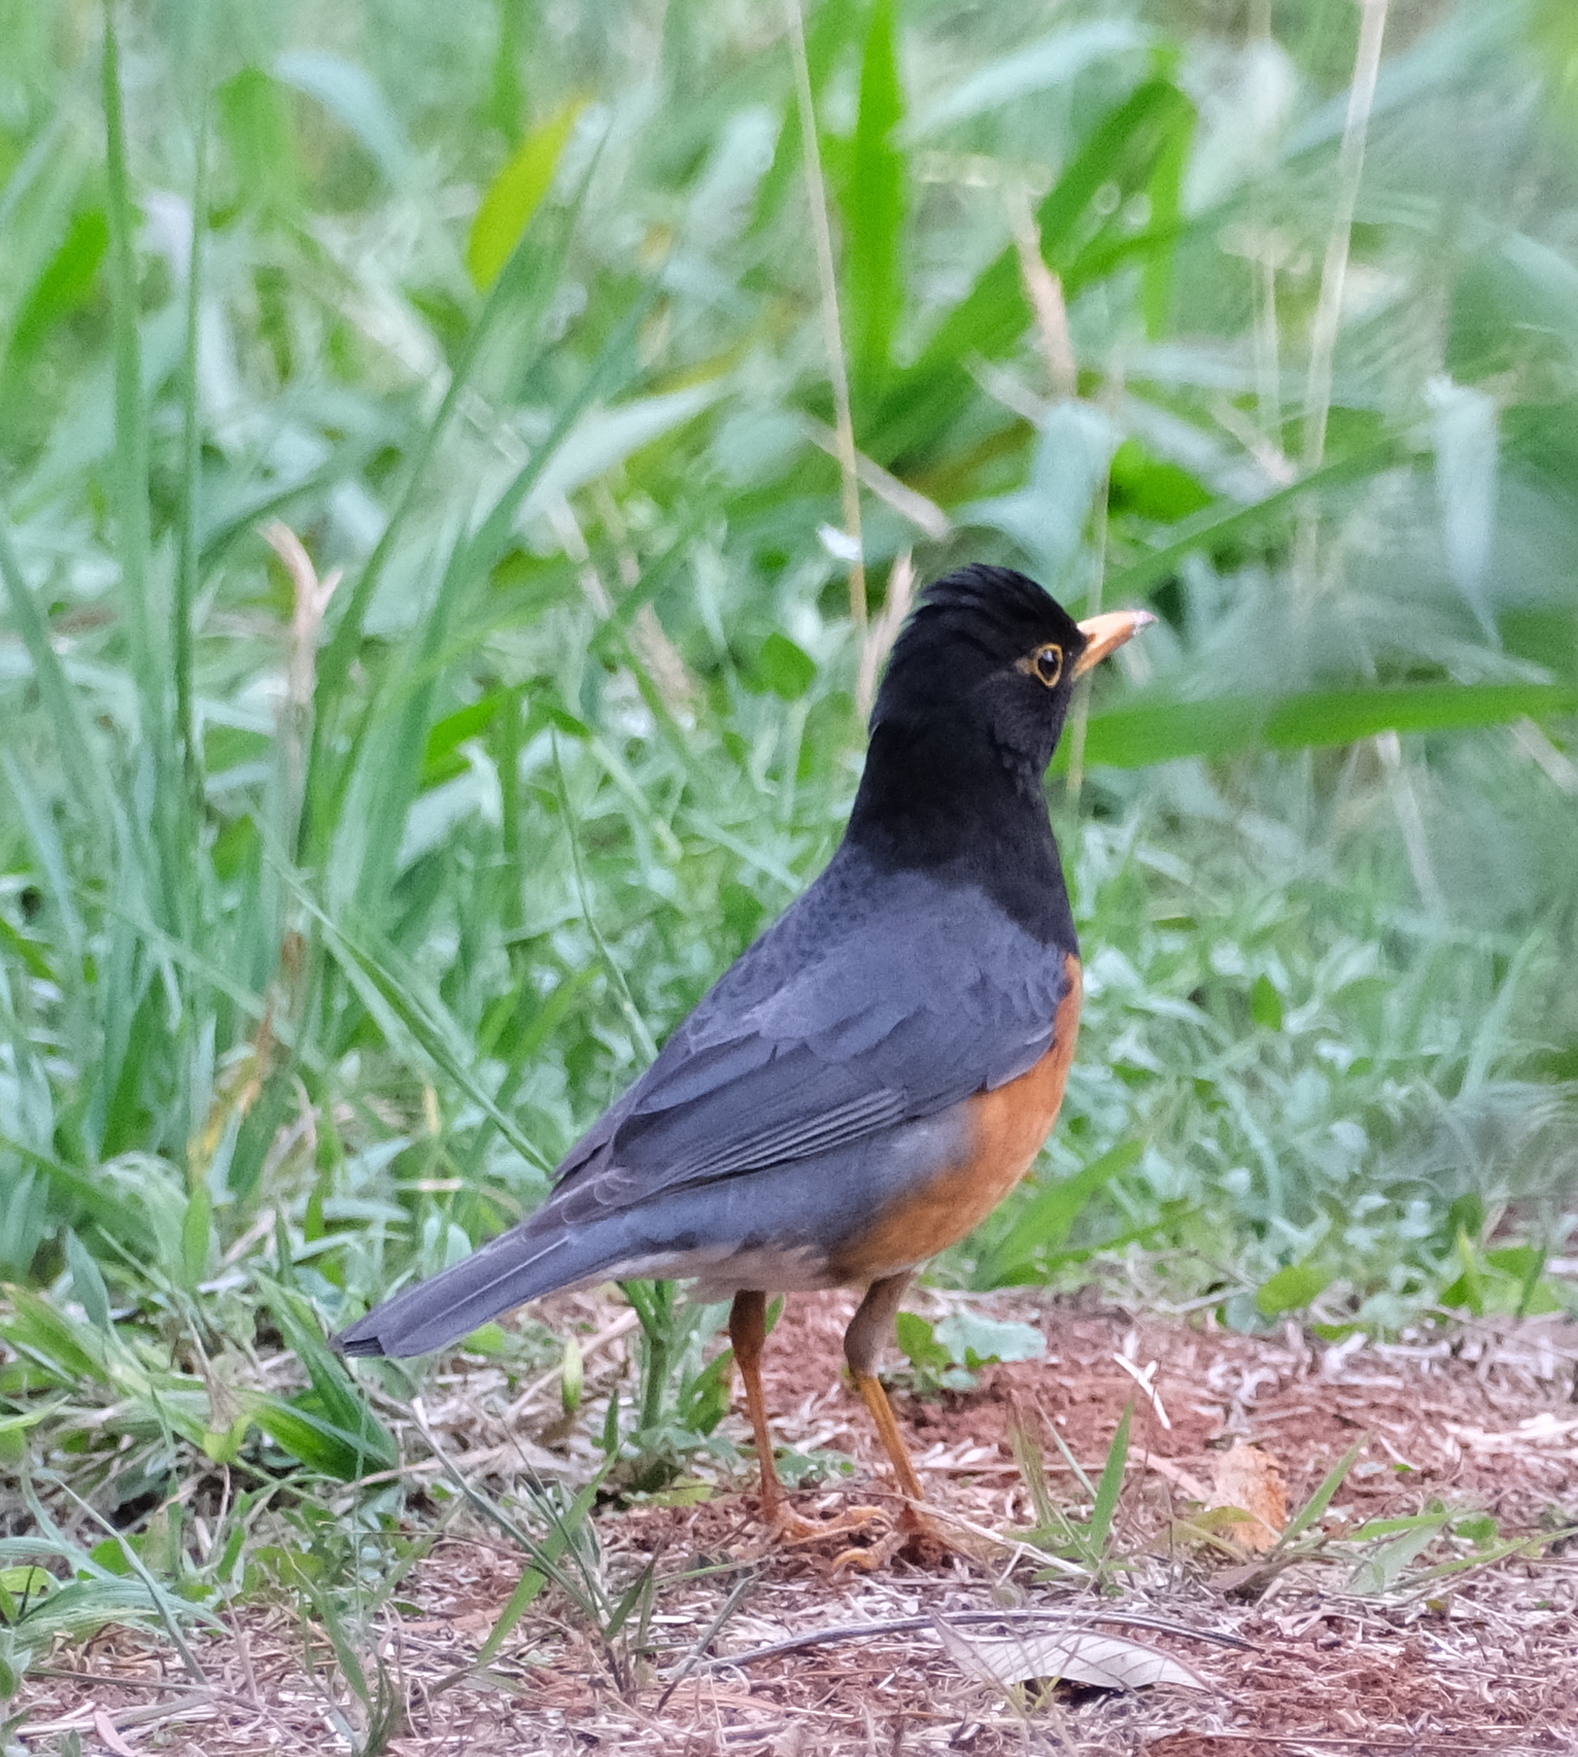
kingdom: Animalia
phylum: Chordata
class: Aves
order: Passeriformes
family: Turdidae
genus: Turdus
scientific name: Turdus dissimilis
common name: Black-breasted thrush
